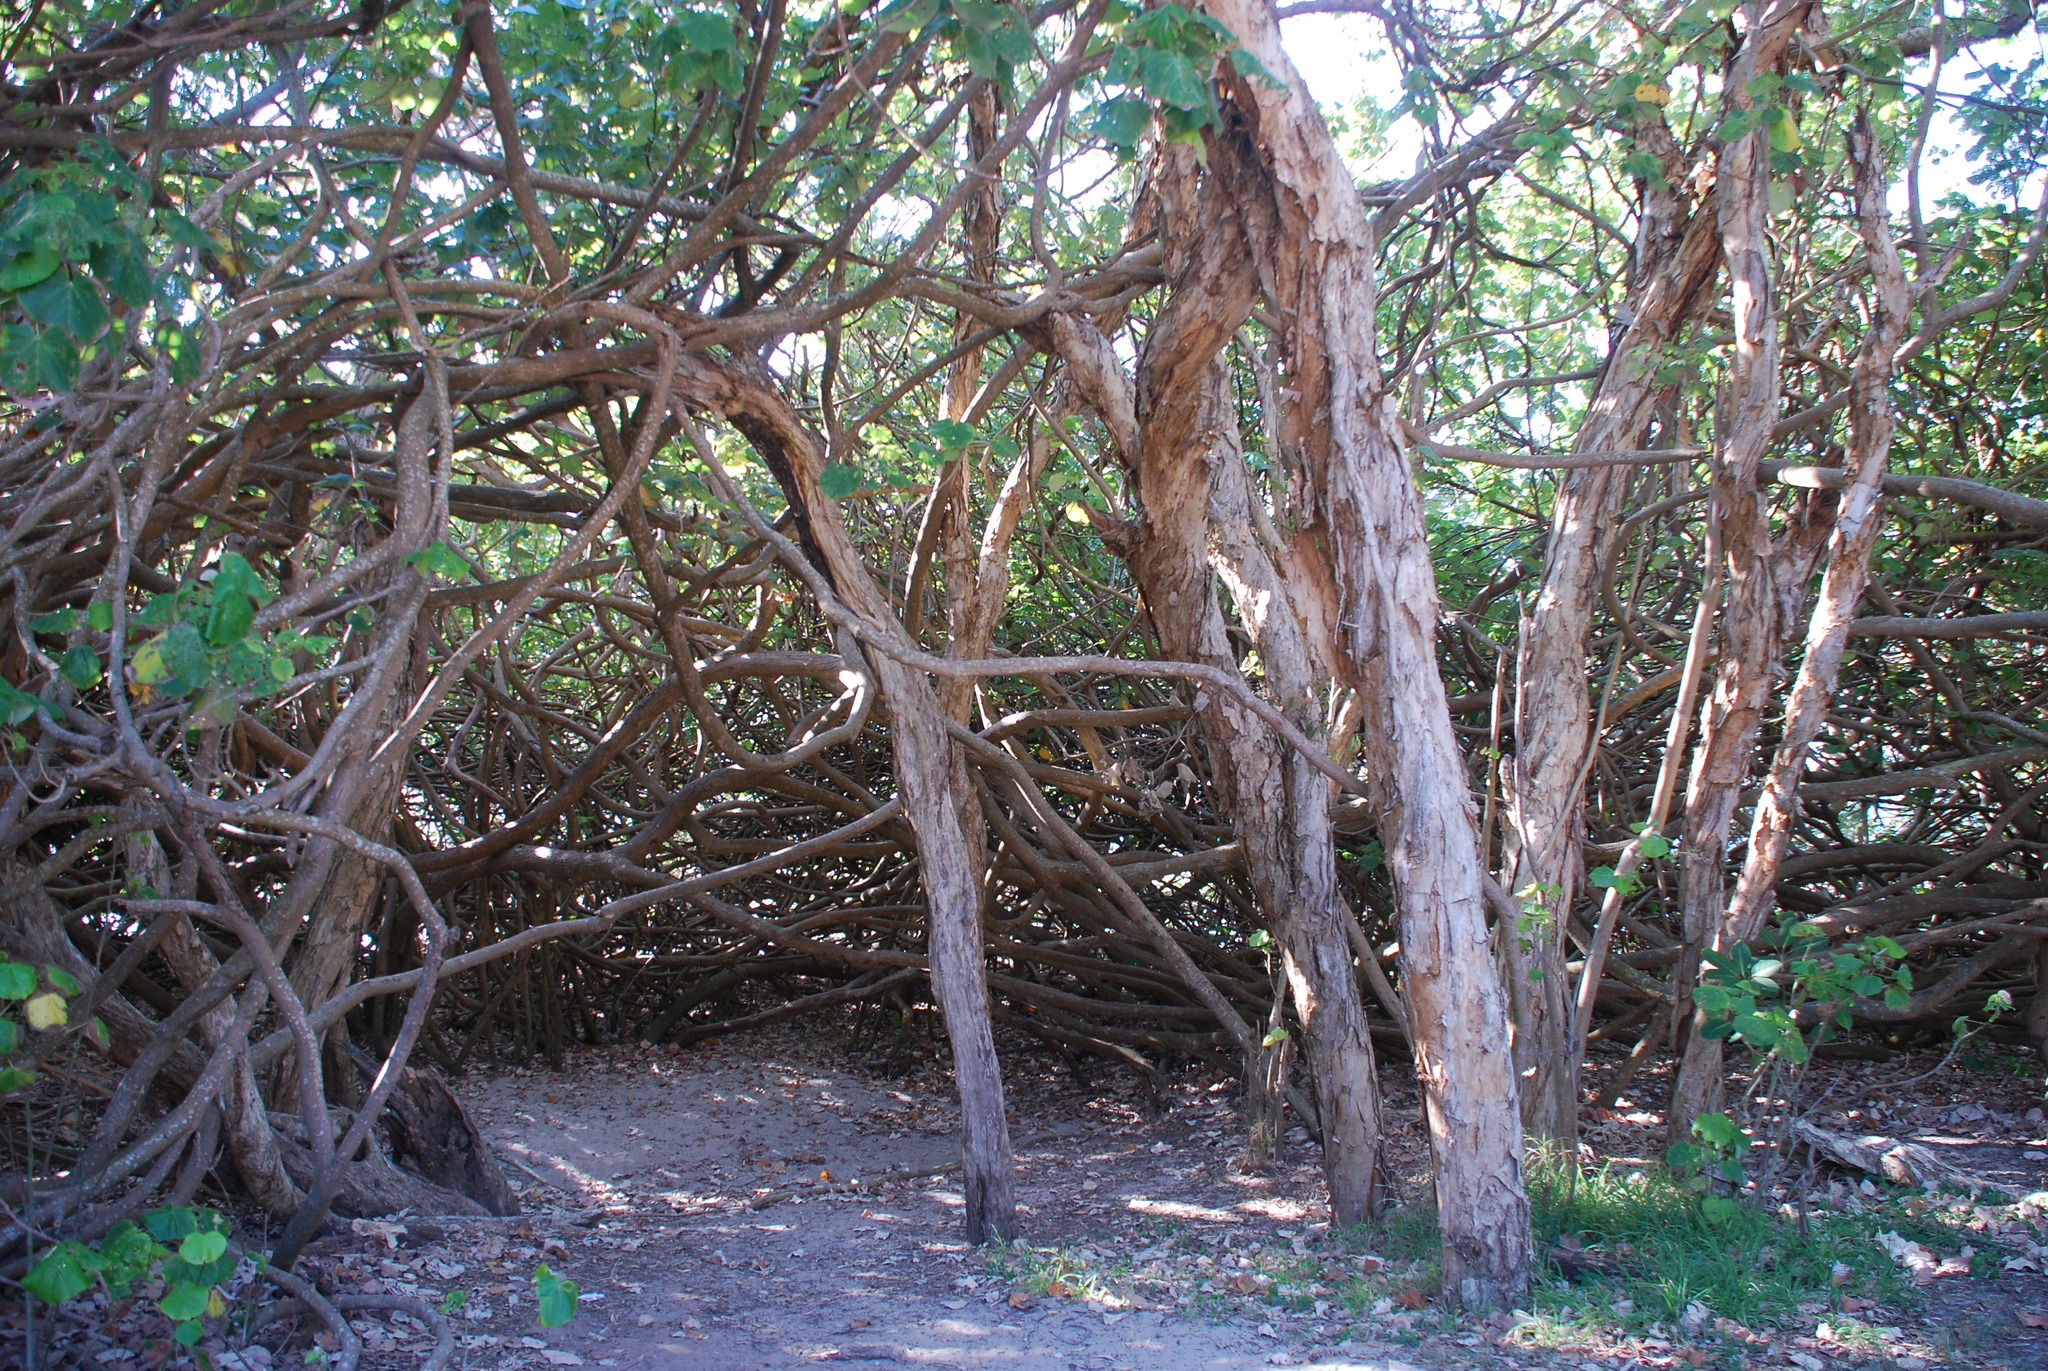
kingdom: Plantae
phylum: Tracheophyta
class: Magnoliopsida
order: Malvales
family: Malvaceae
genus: Talipariti
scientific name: Talipariti tiliaceum
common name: Sea hibiscus
